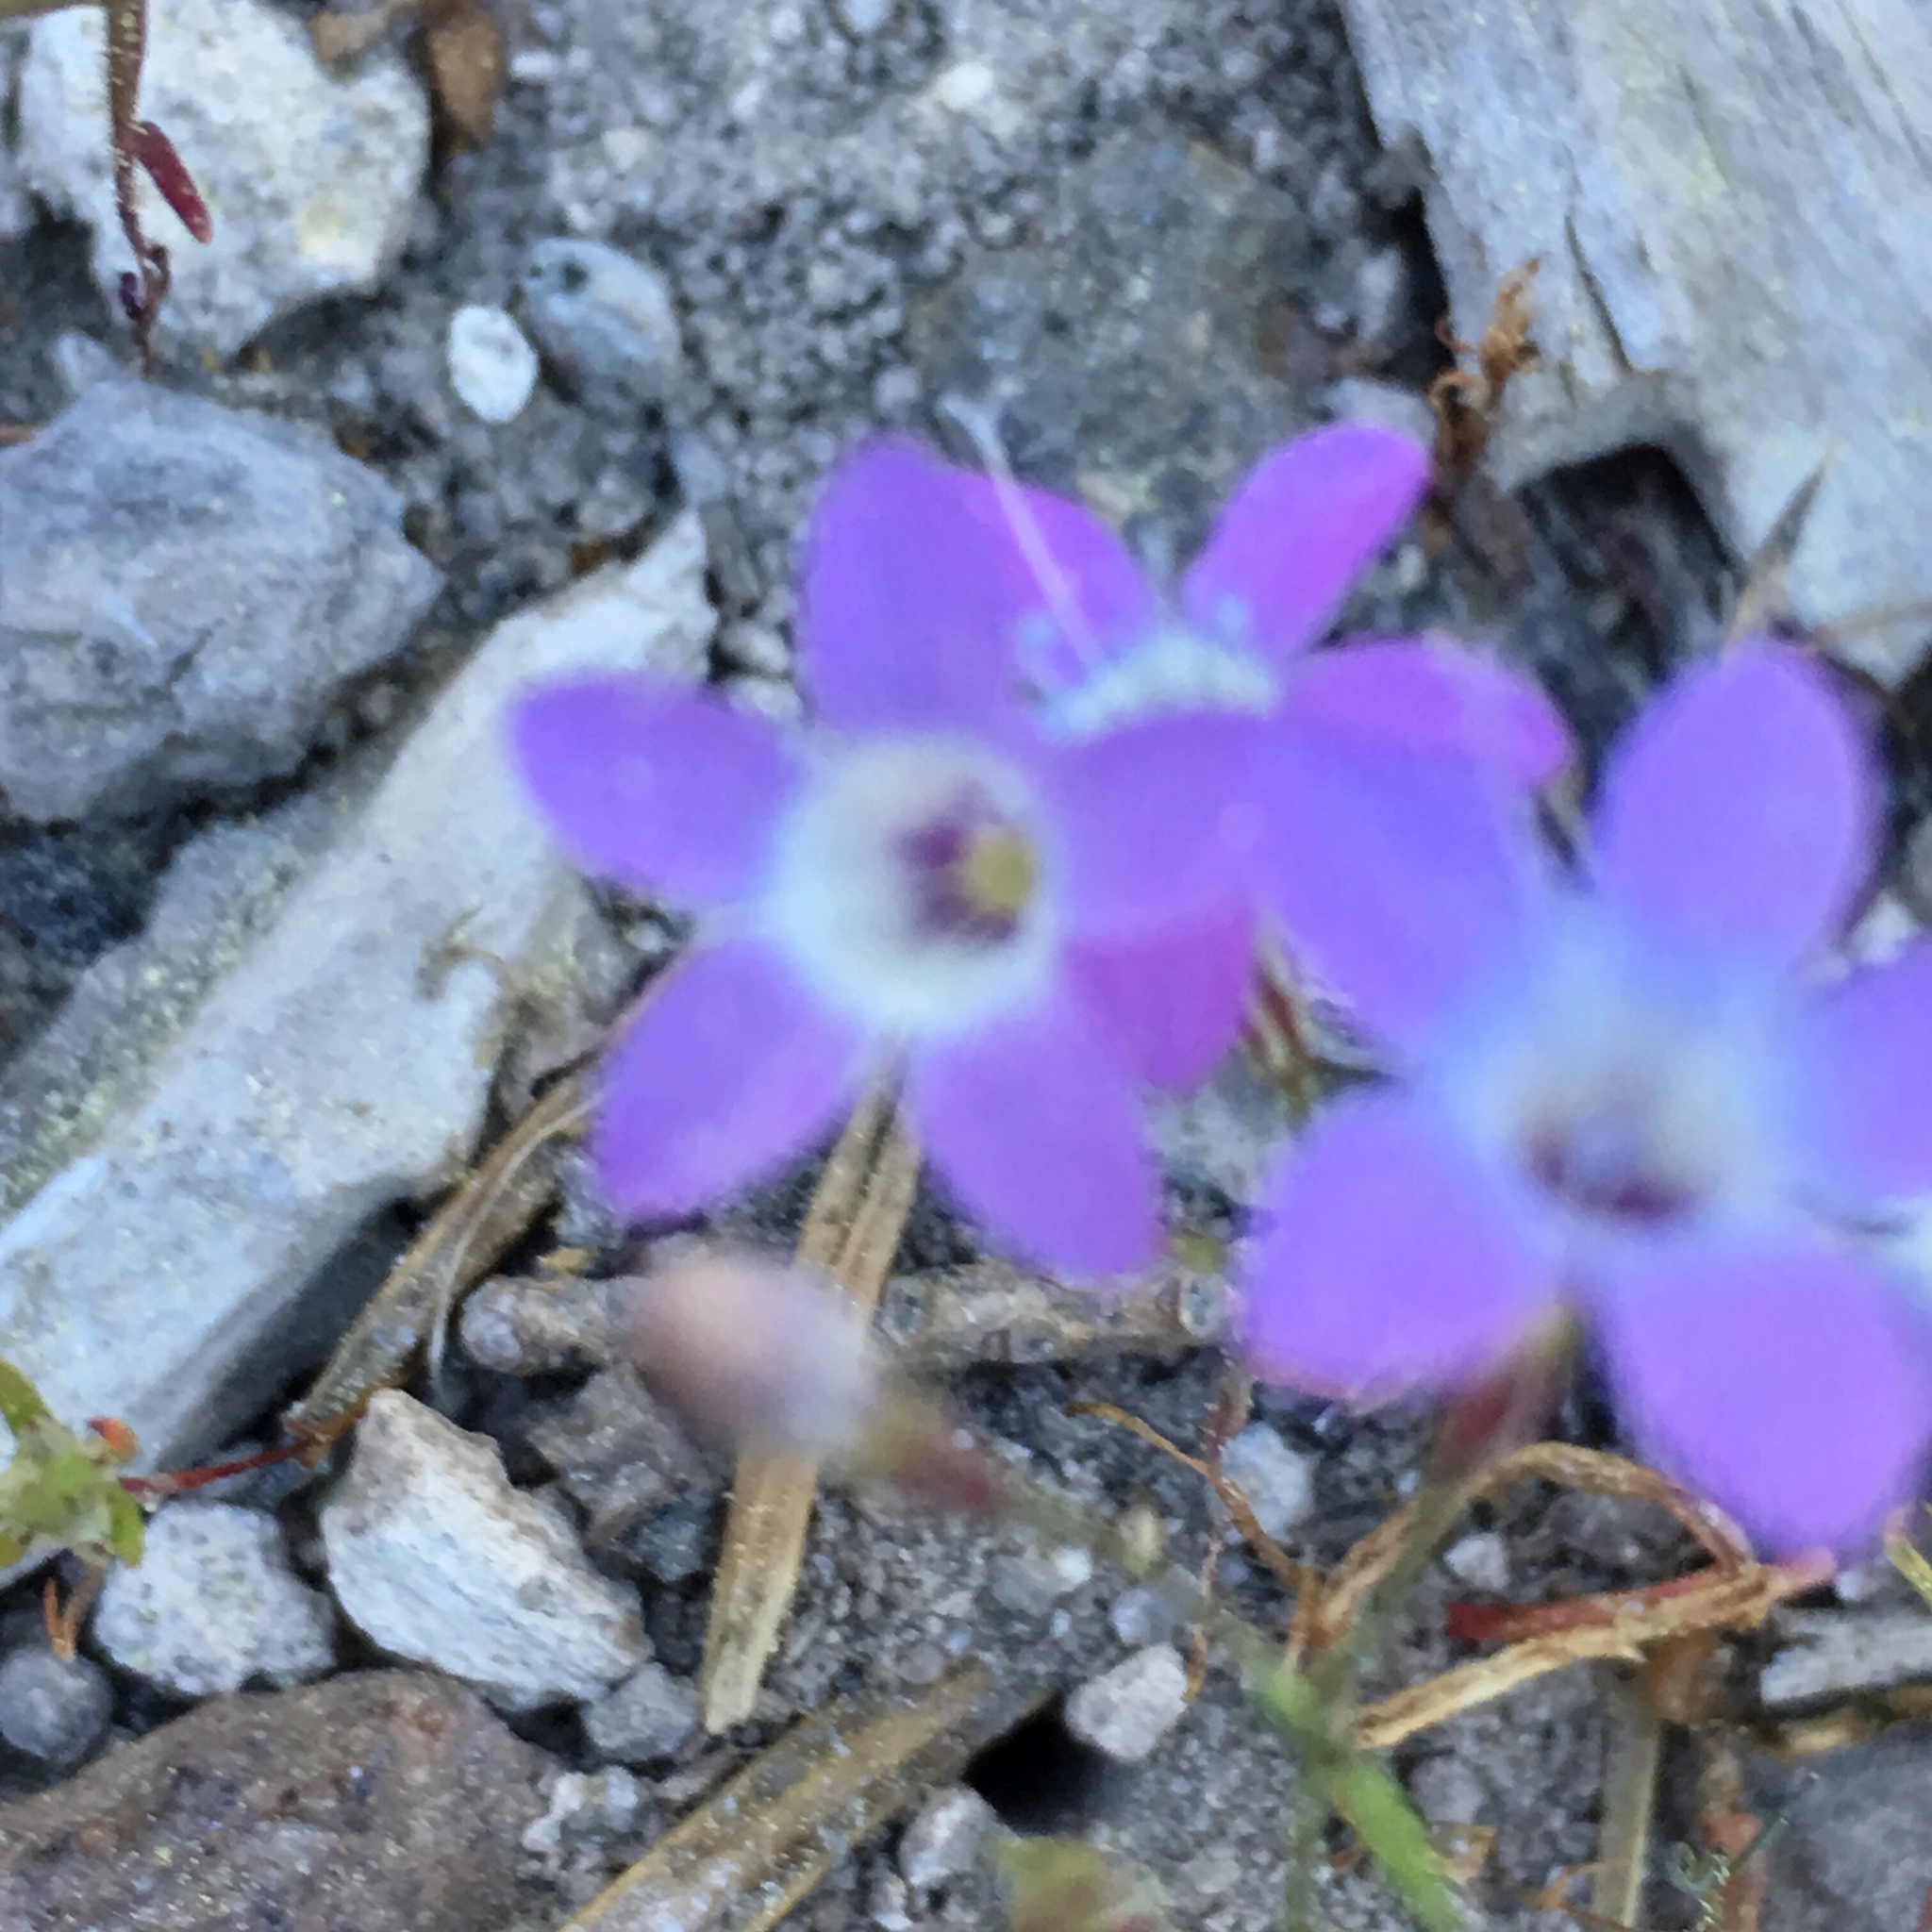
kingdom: Plantae
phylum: Tracheophyta
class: Magnoliopsida
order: Ericales
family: Polemoniaceae
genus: Navarretia
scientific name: Navarretia leptalea
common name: Bridges' pincushionplant
